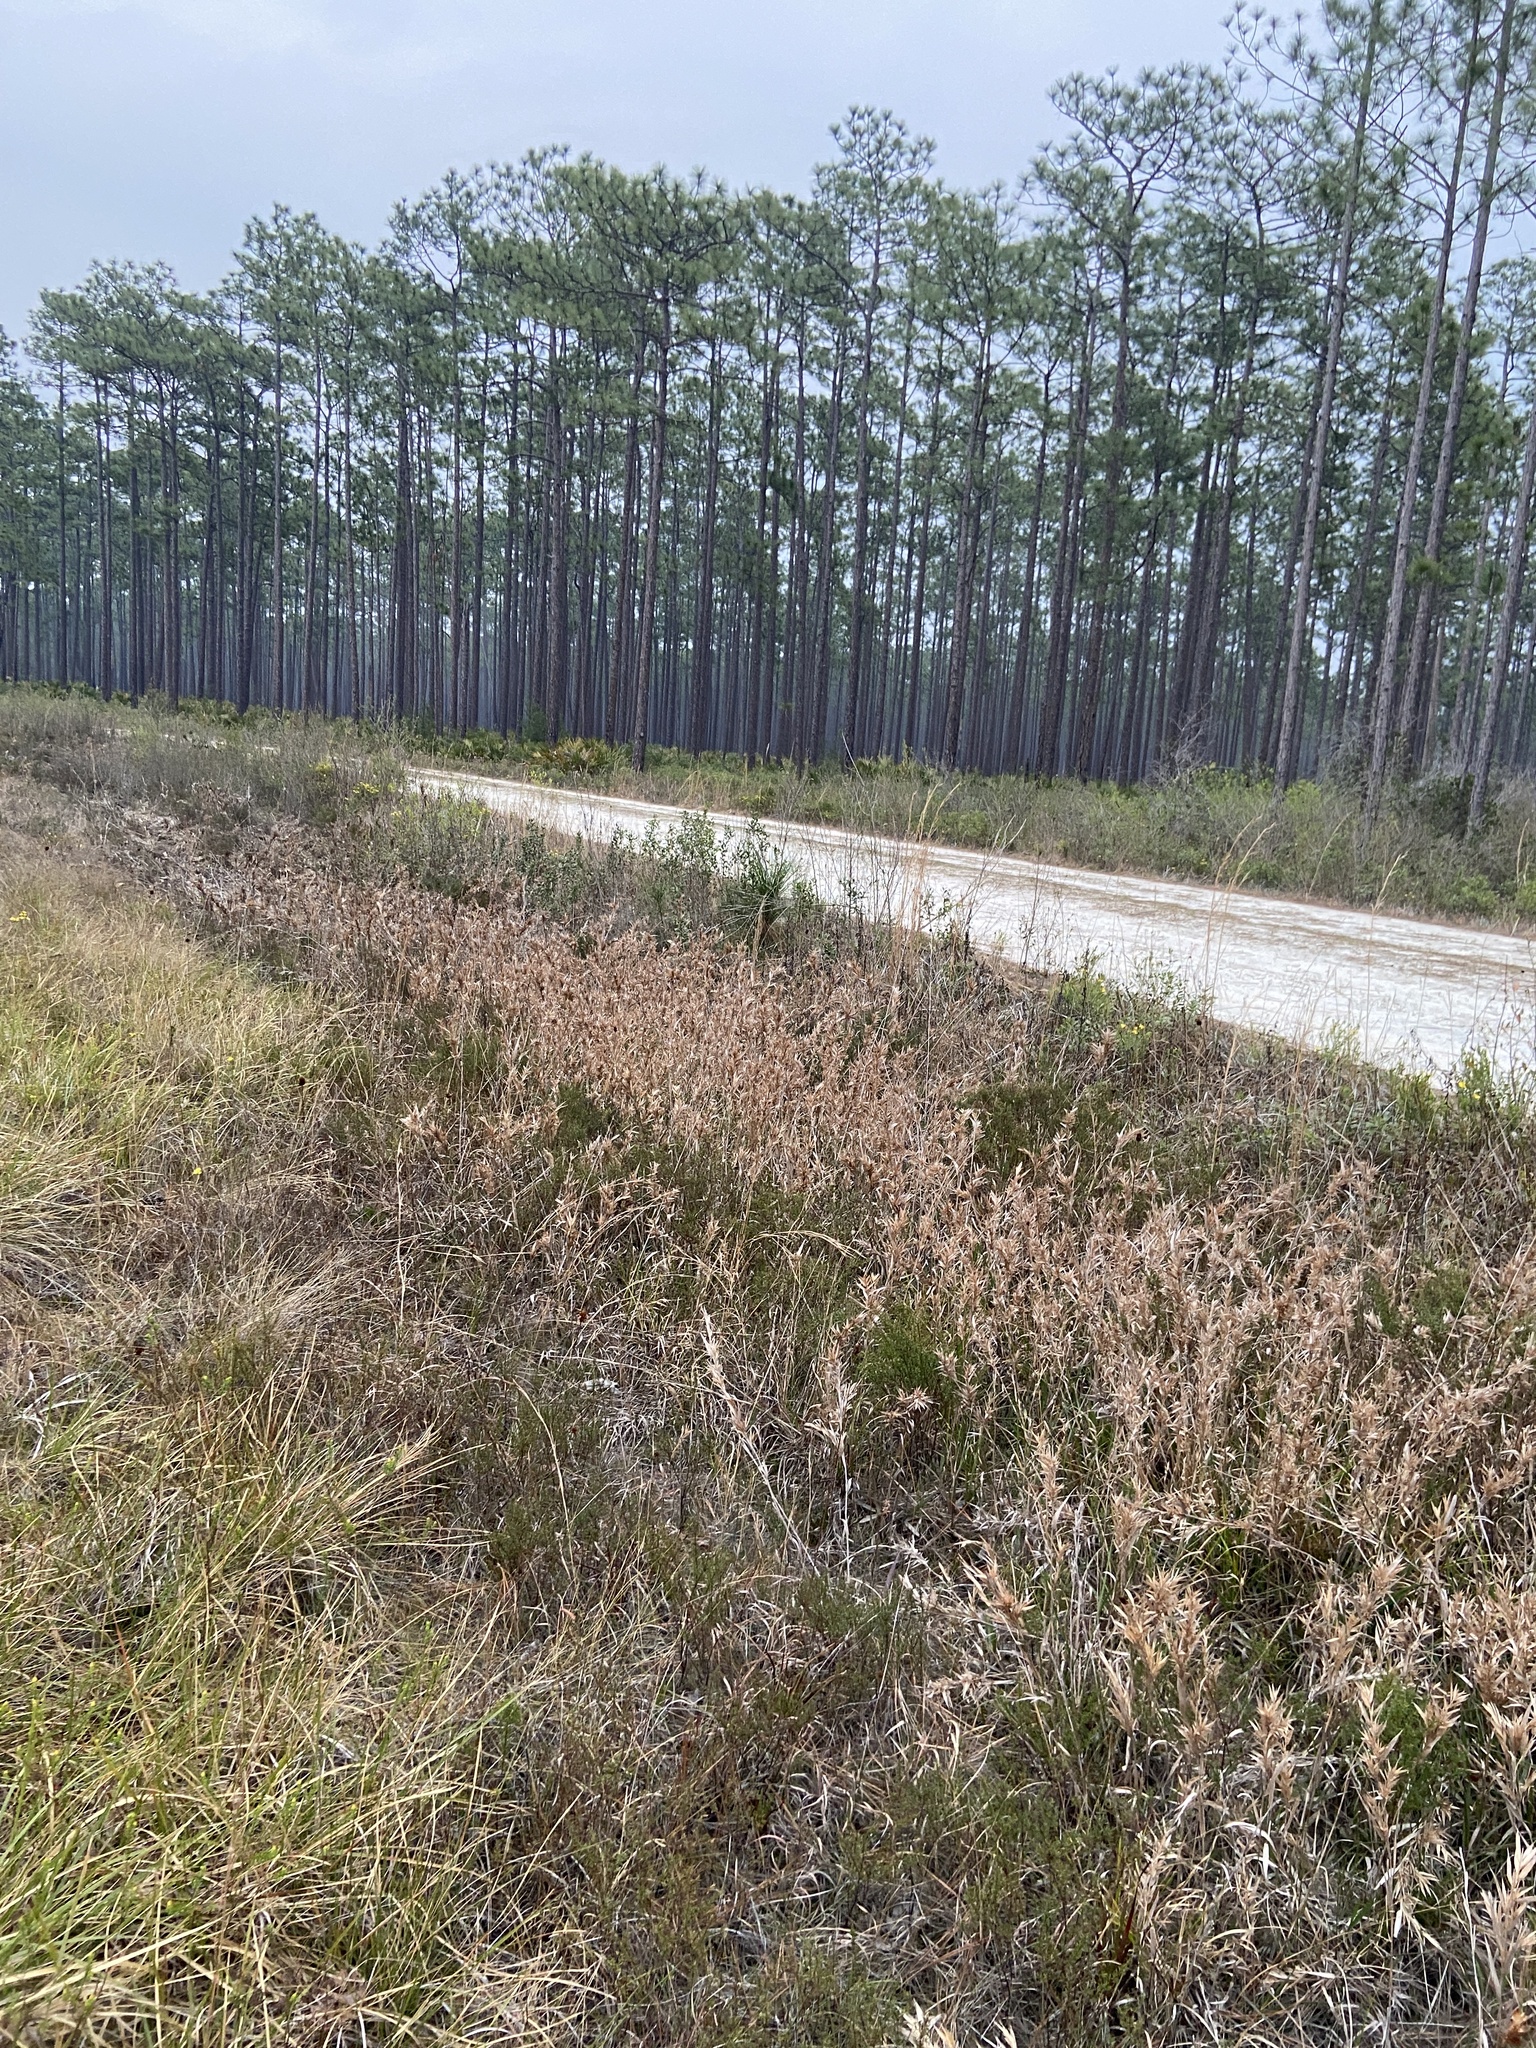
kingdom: Plantae
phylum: Tracheophyta
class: Liliopsida
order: Poales
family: Poaceae
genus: Dichanthelium
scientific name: Dichanthelium scabriusculum
